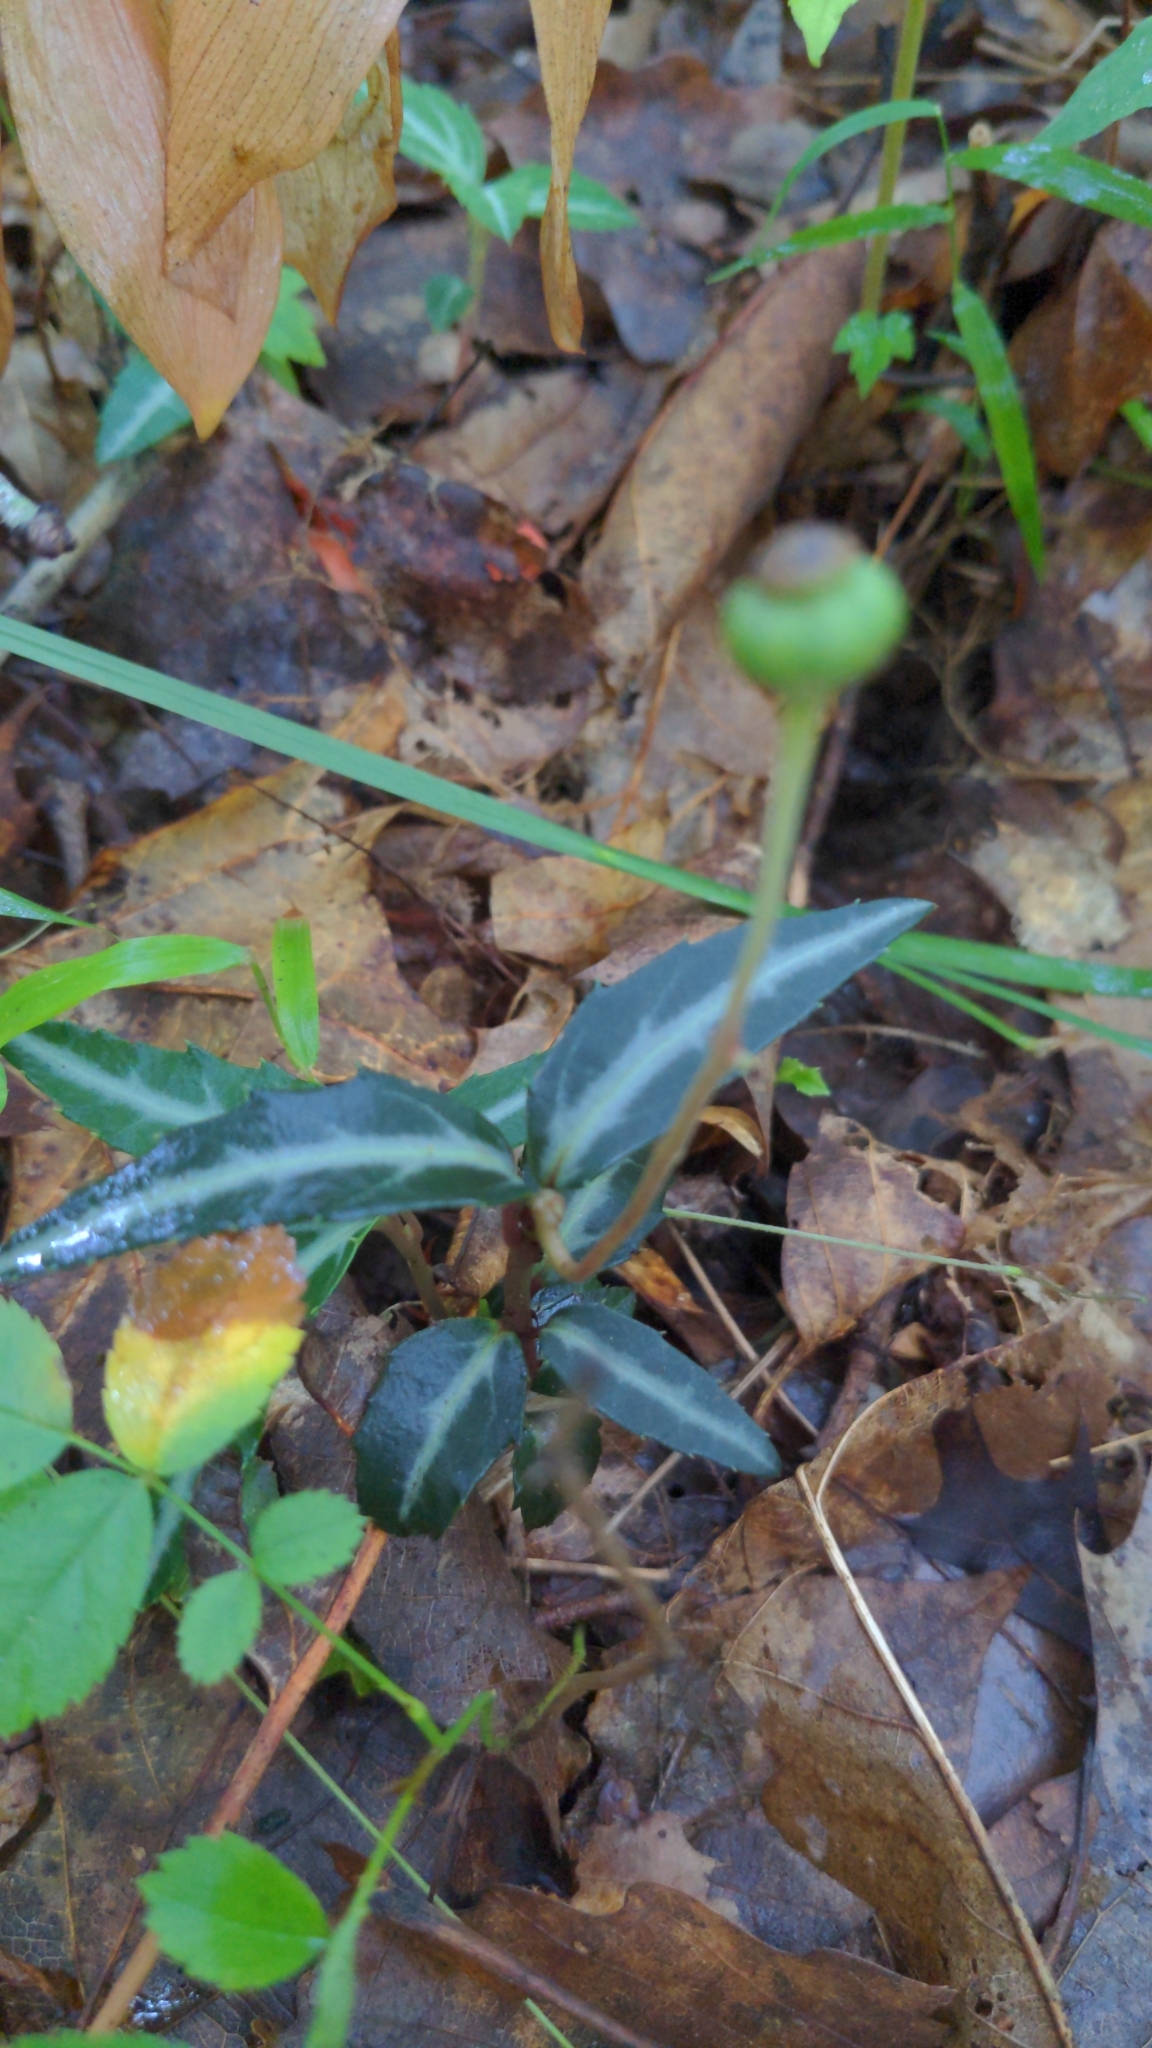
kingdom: Plantae
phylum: Tracheophyta
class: Magnoliopsida
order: Ericales
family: Ericaceae
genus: Chimaphila
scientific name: Chimaphila maculata
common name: Spotted pipsissewa
